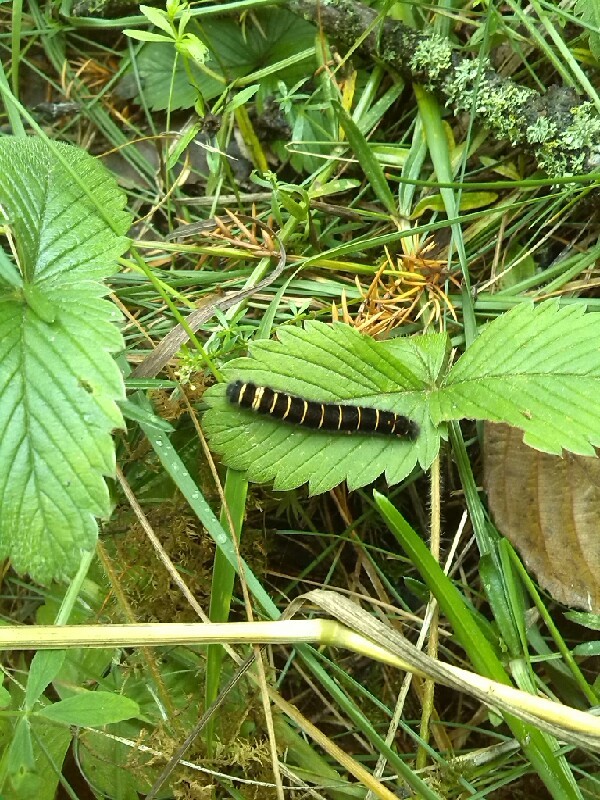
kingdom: Animalia
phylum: Arthropoda
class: Insecta
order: Lepidoptera
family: Lasiocampidae
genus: Macrothylacia
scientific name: Macrothylacia rubi
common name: Fox moth
